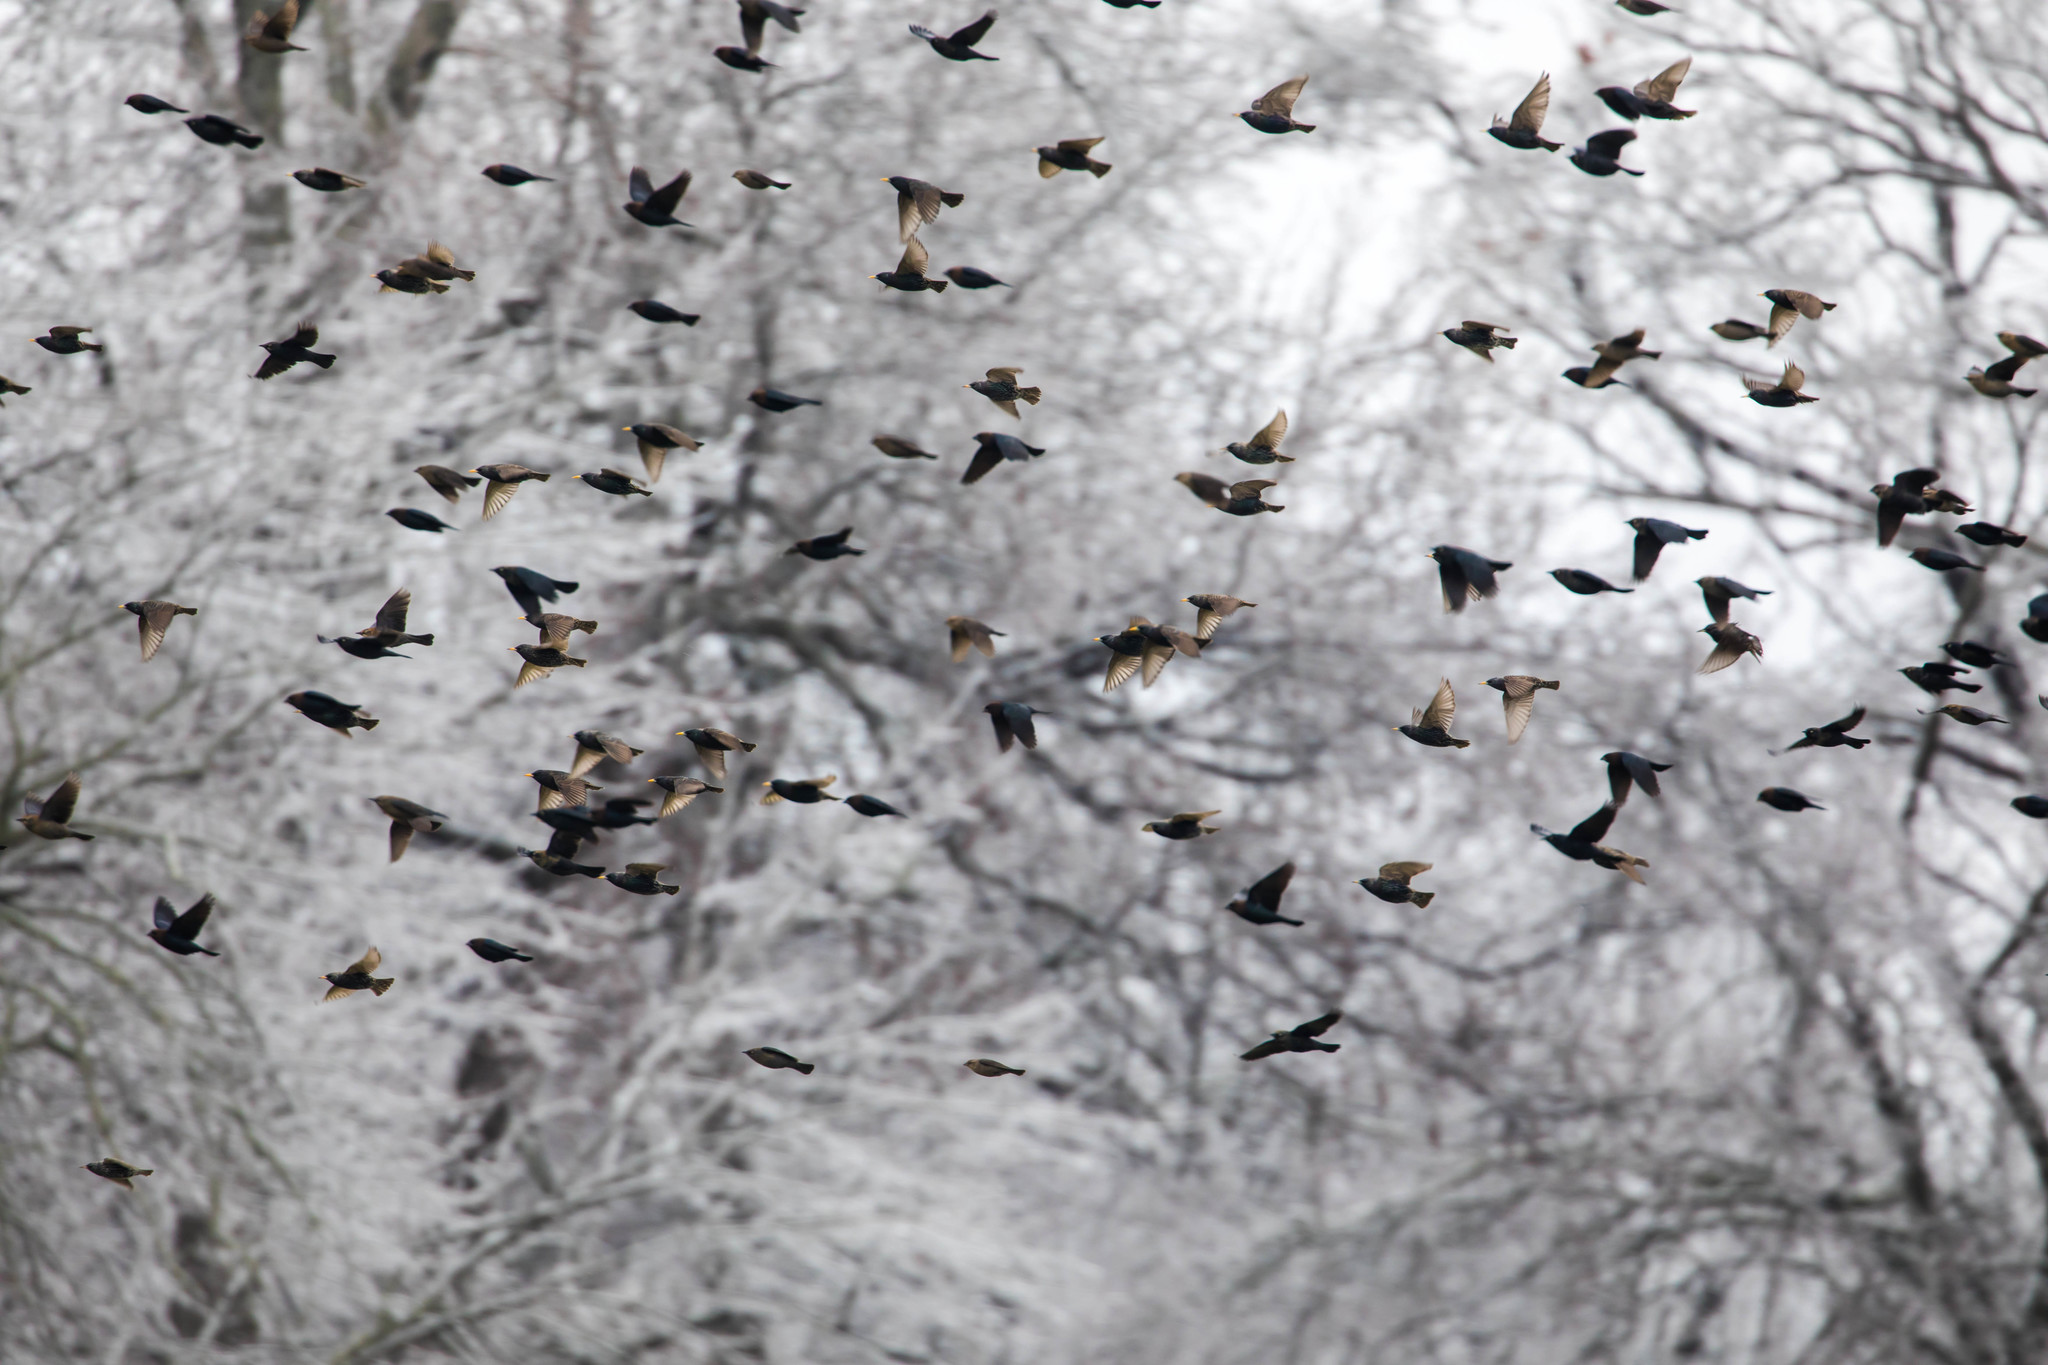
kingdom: Animalia
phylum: Chordata
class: Aves
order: Passeriformes
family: Sturnidae
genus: Sturnus
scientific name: Sturnus vulgaris
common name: Common starling
